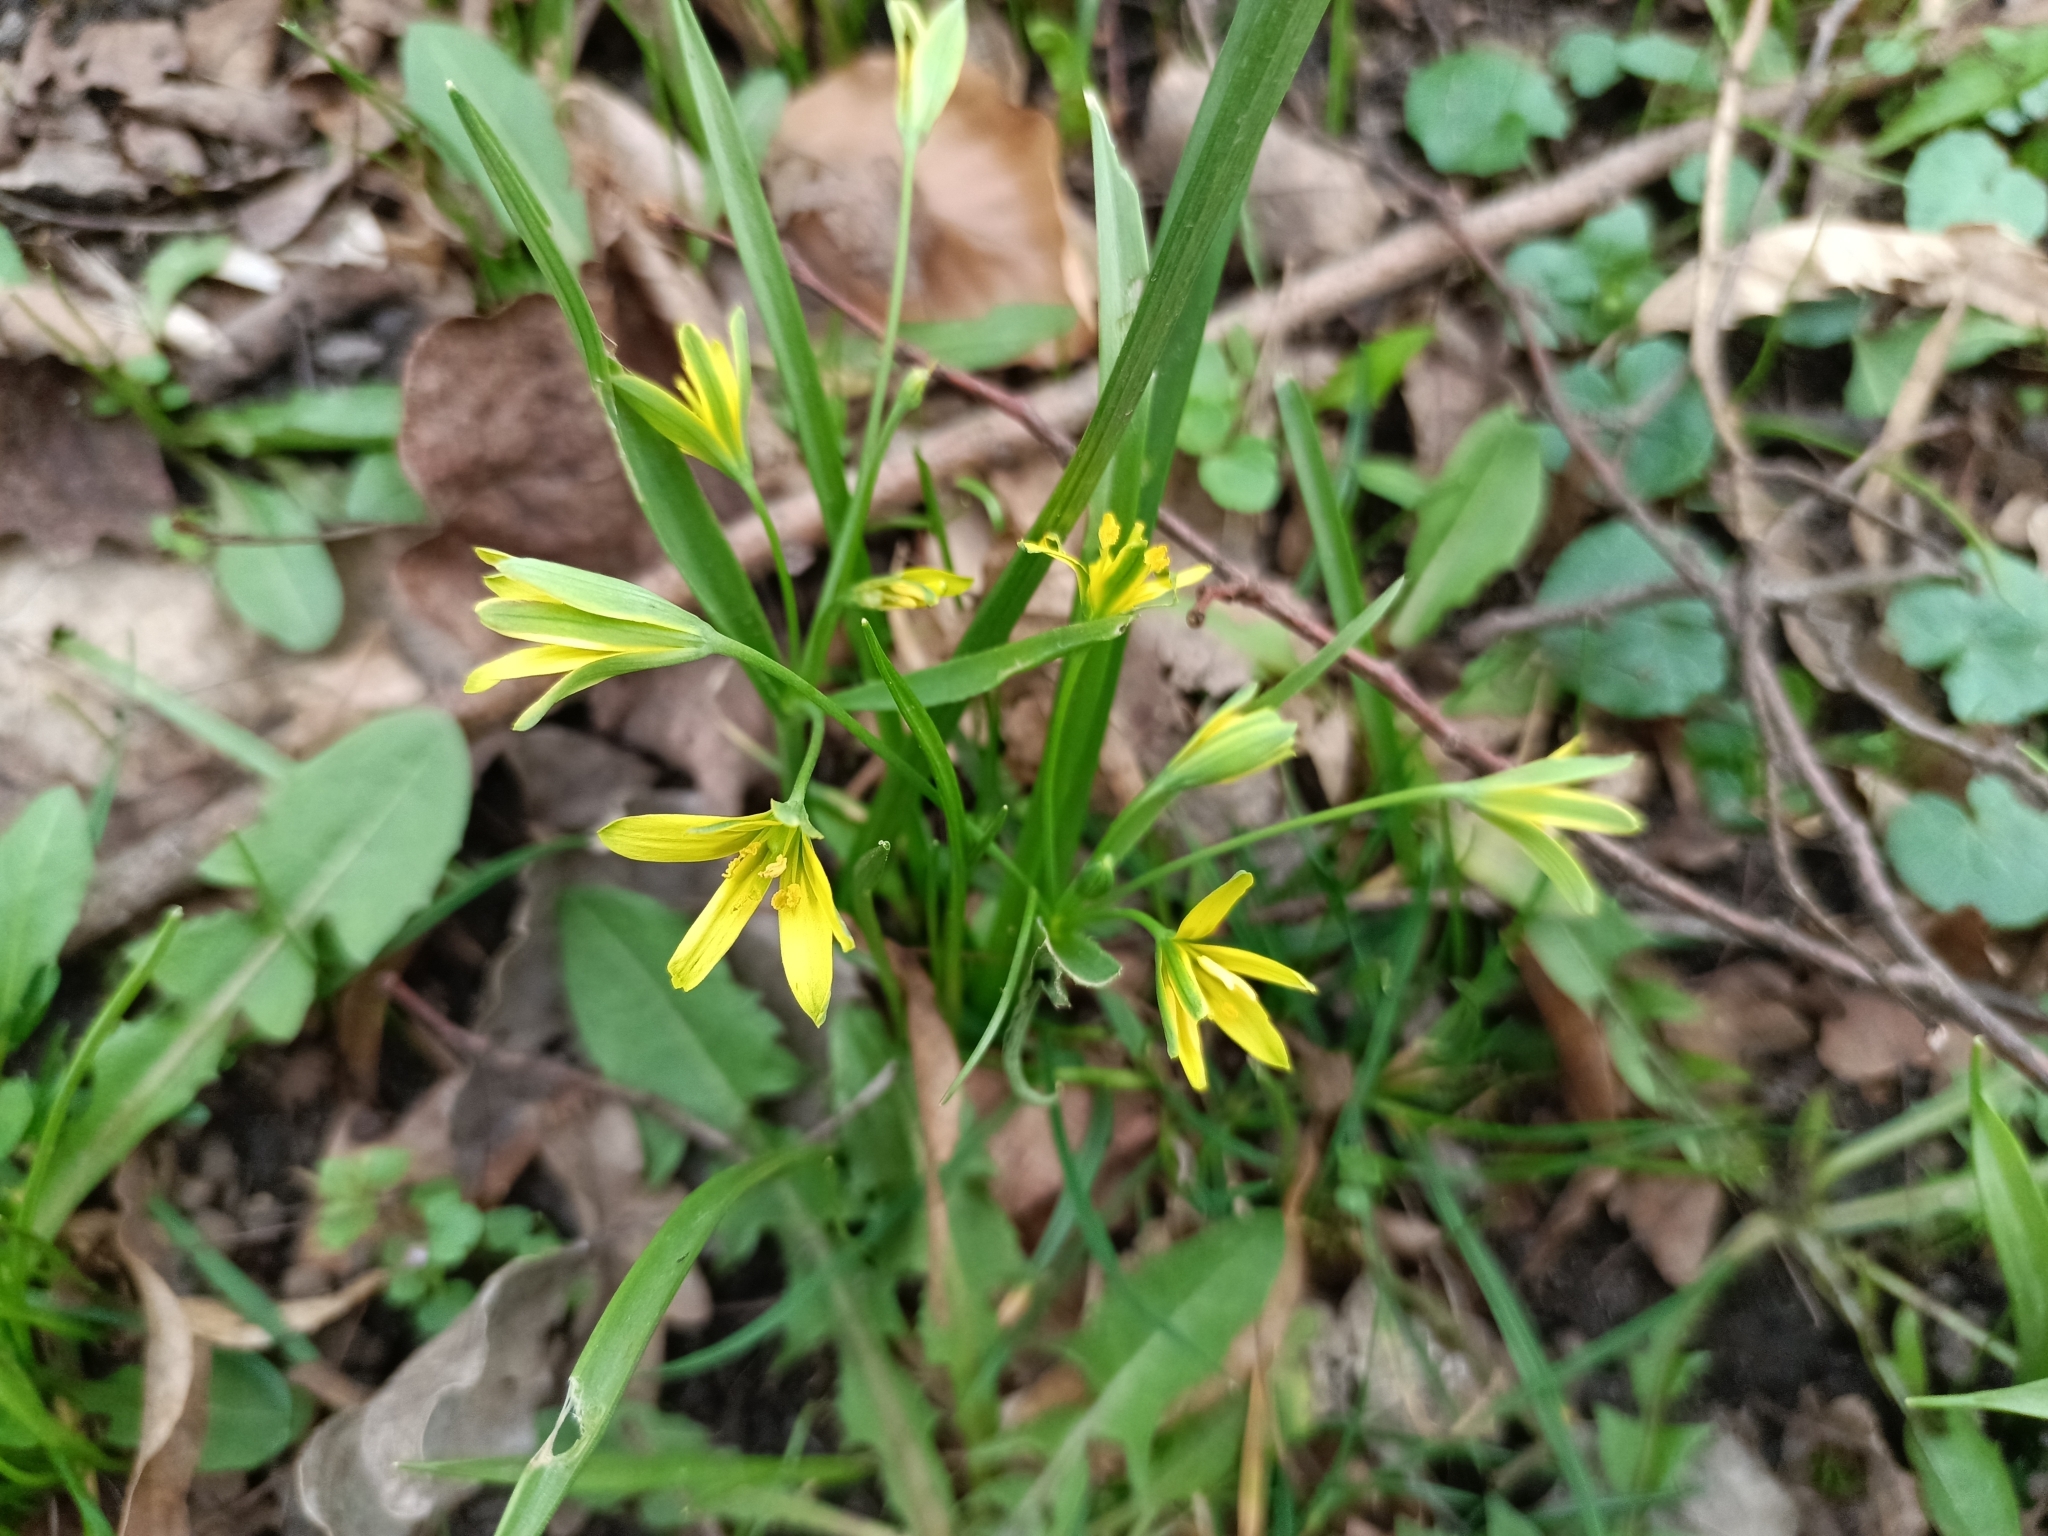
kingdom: Plantae
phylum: Tracheophyta
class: Liliopsida
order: Liliales
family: Liliaceae
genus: Gagea
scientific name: Gagea lutea
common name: Yellow star-of-bethlehem
